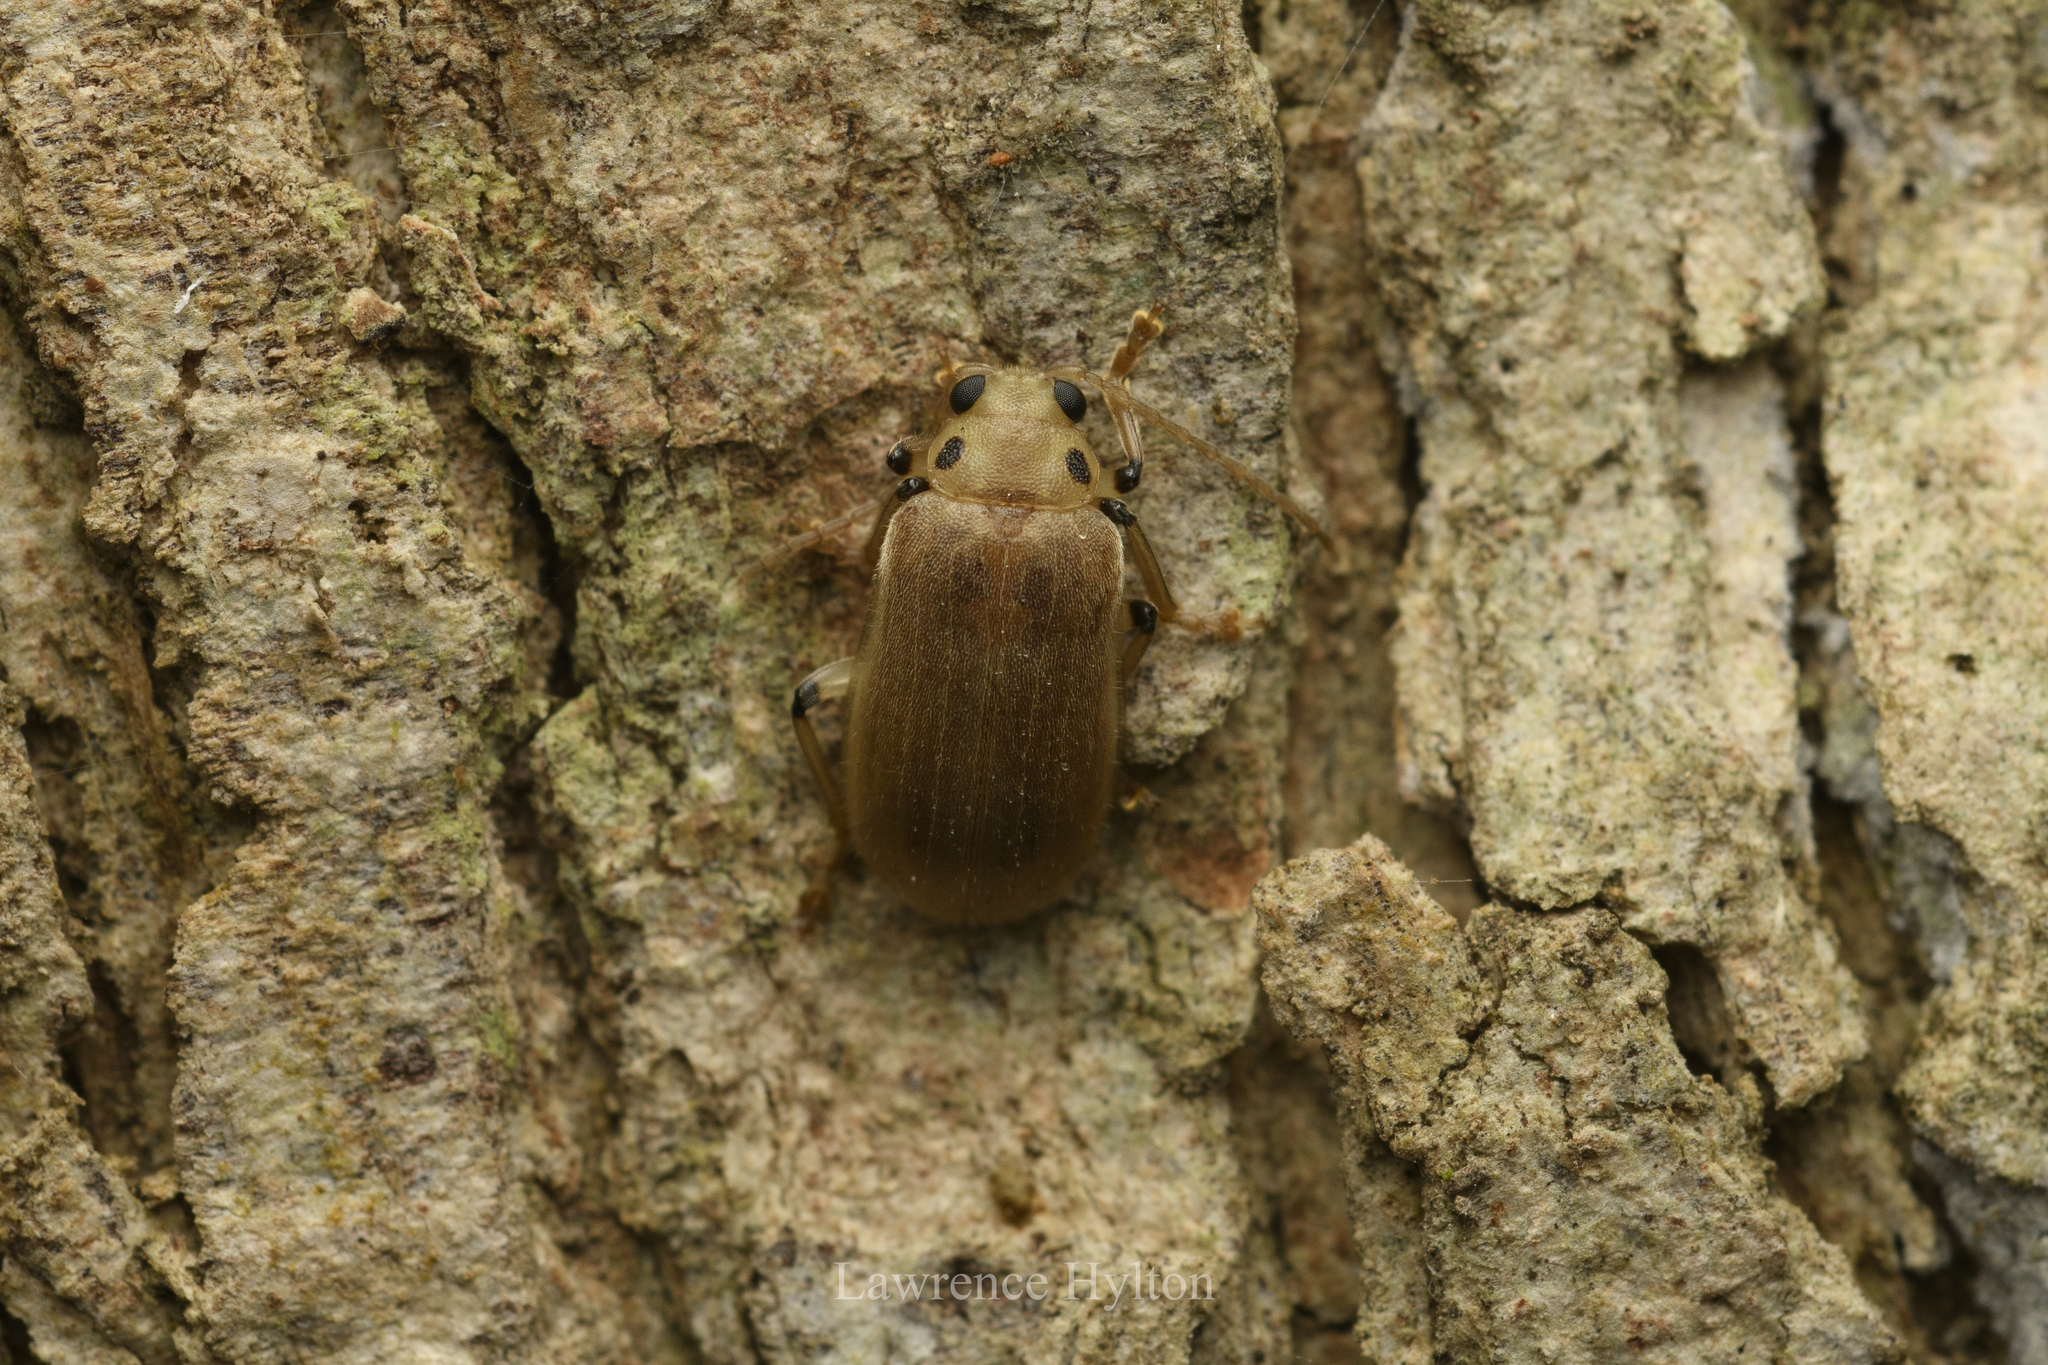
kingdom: Animalia
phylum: Arthropoda
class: Insecta
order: Coleoptera
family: Chrysomelidae
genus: Pyrrhalta
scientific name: Pyrrhalta
